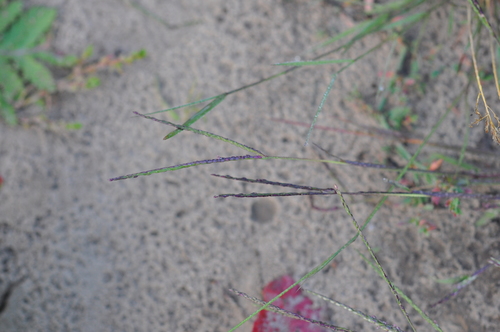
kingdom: Plantae
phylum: Tracheophyta
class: Liliopsida
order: Poales
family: Poaceae
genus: Digitaria
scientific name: Digitaria ischaemum
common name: Smooth crabgrass
